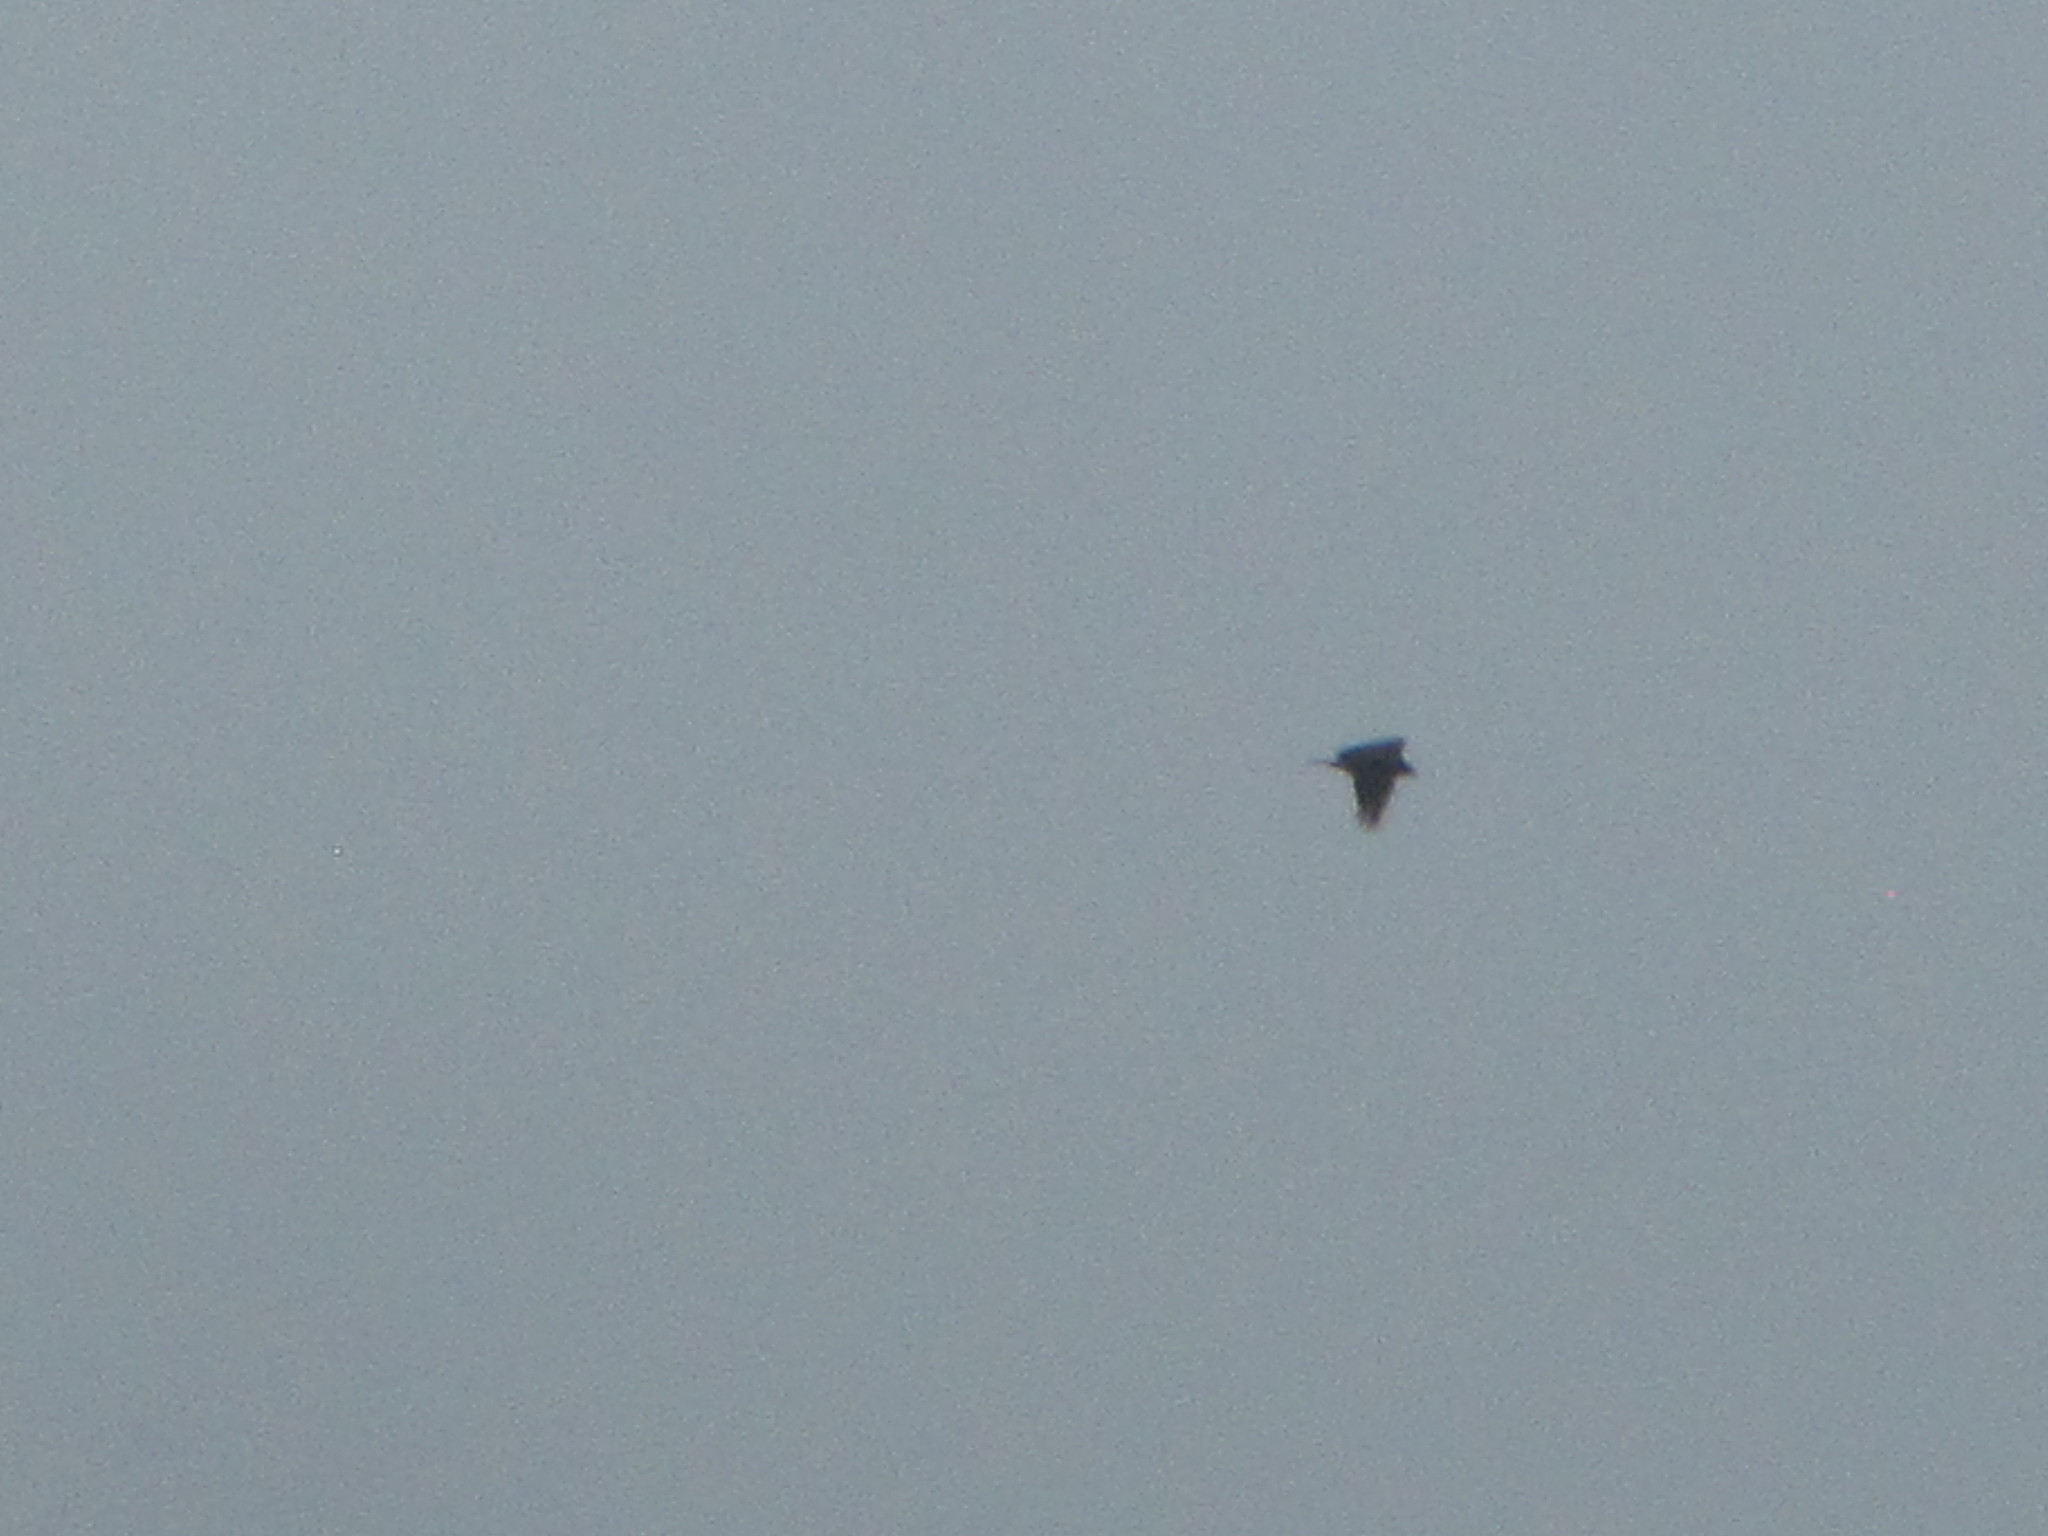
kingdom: Animalia
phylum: Chordata
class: Aves
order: Accipitriformes
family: Accipitridae
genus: Haliaeetus
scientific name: Haliaeetus leucocephalus
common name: Bald eagle
